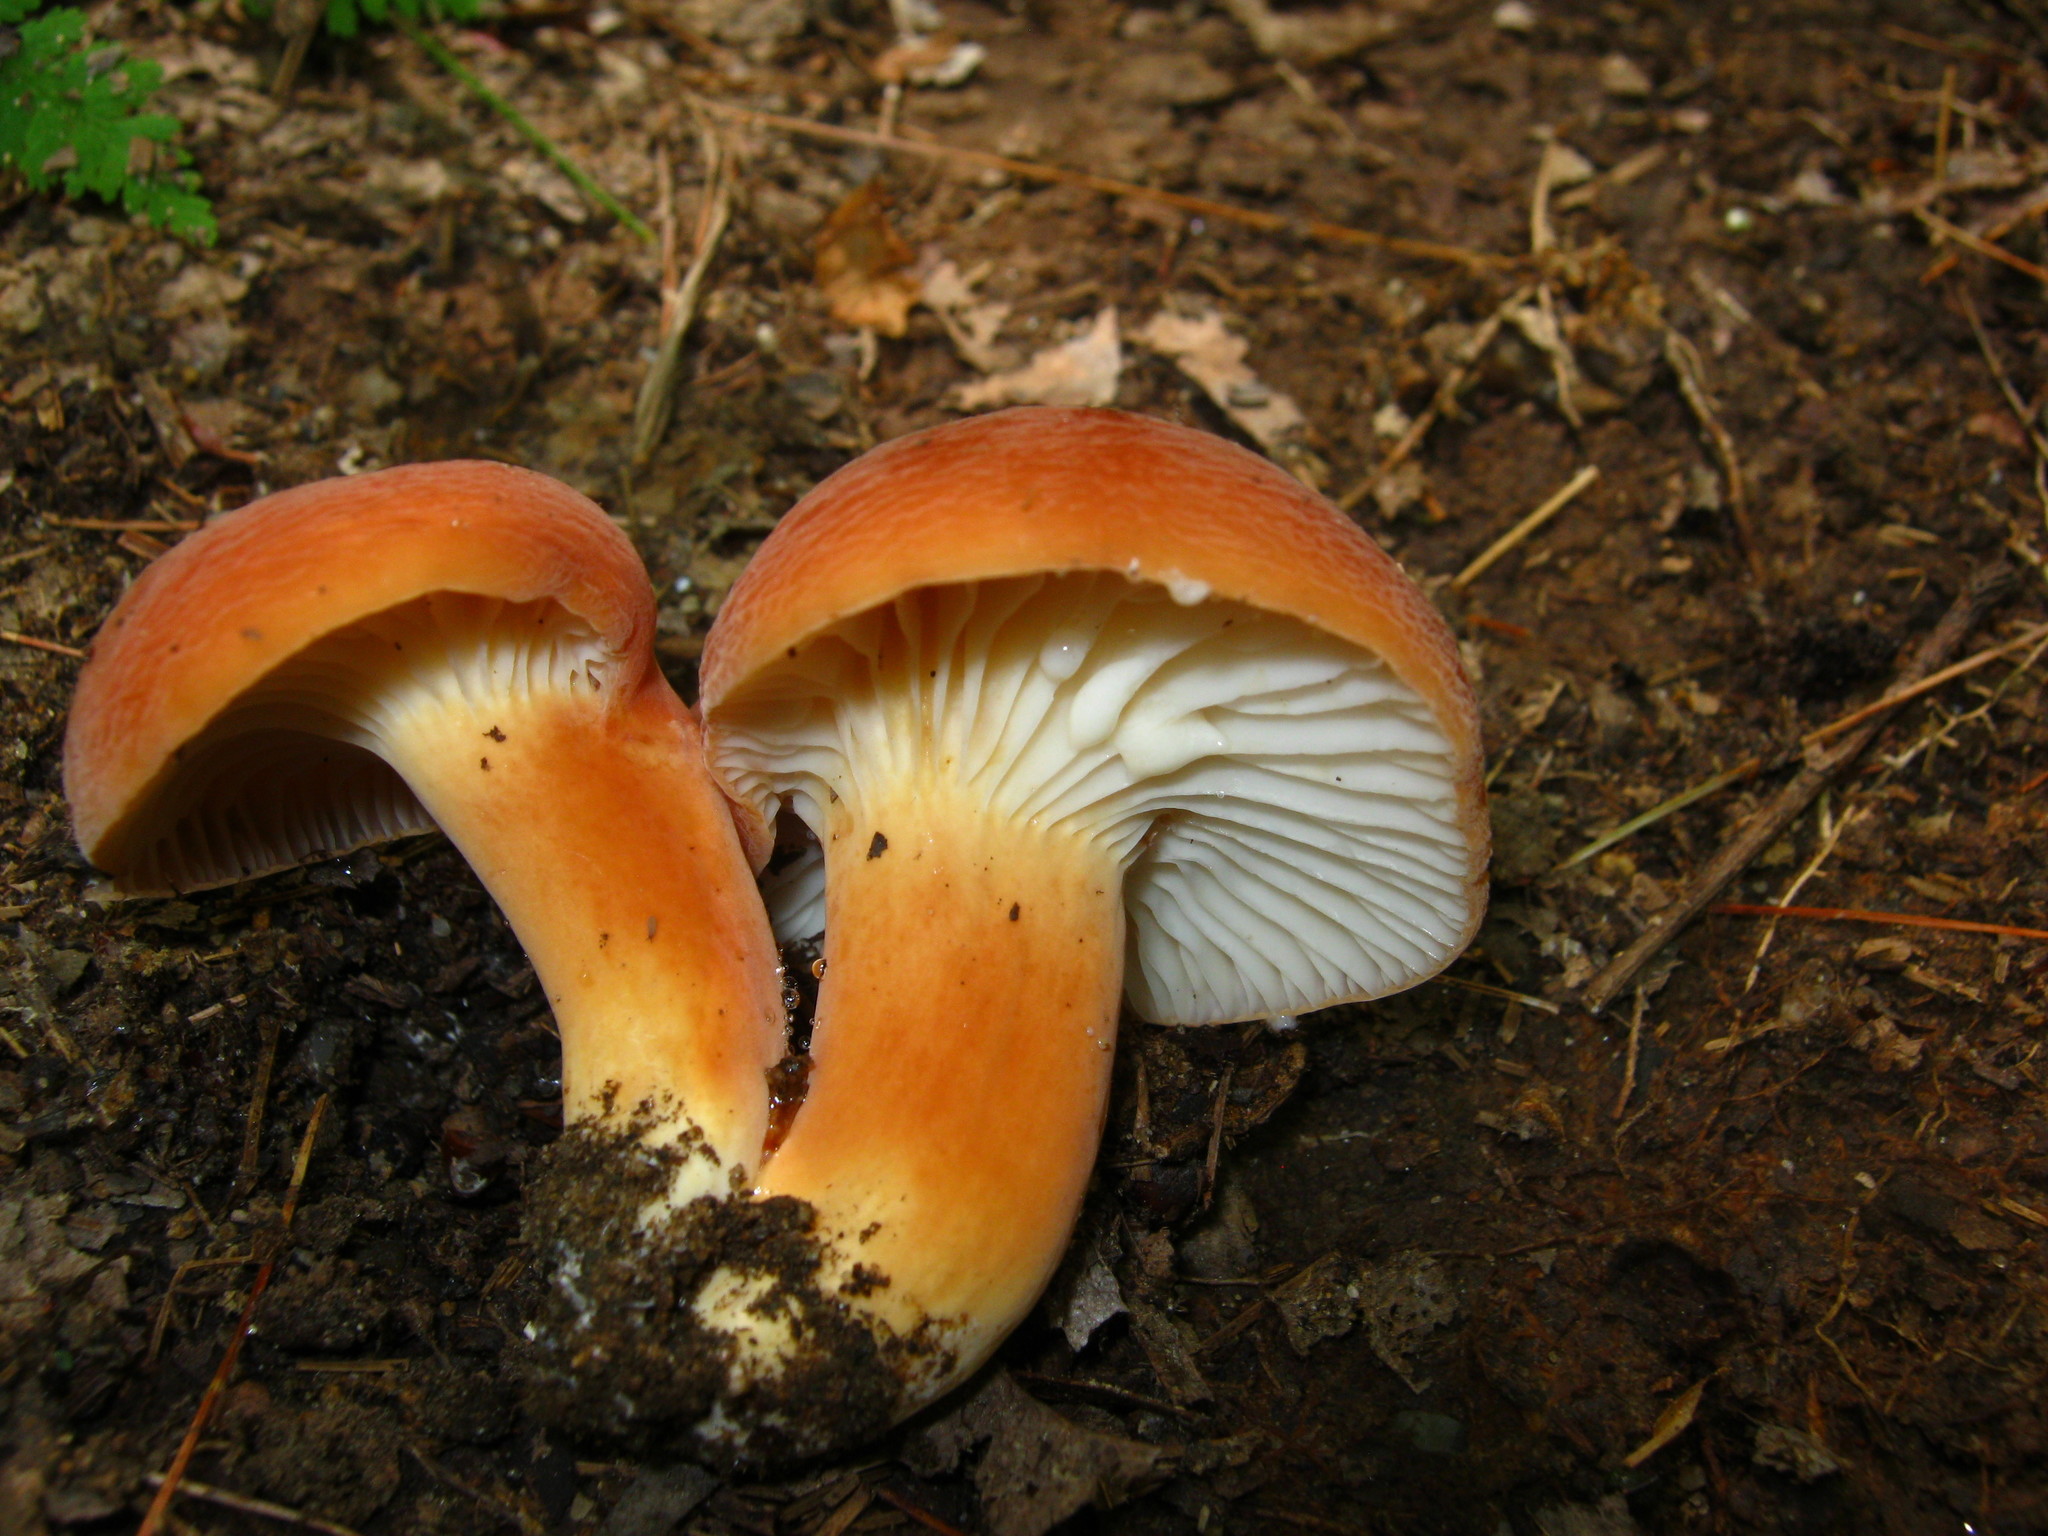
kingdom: Fungi
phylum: Basidiomycota
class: Agaricomycetes
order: Russulales
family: Russulaceae
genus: Lactarius
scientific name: Lactarius hygrophoroides
